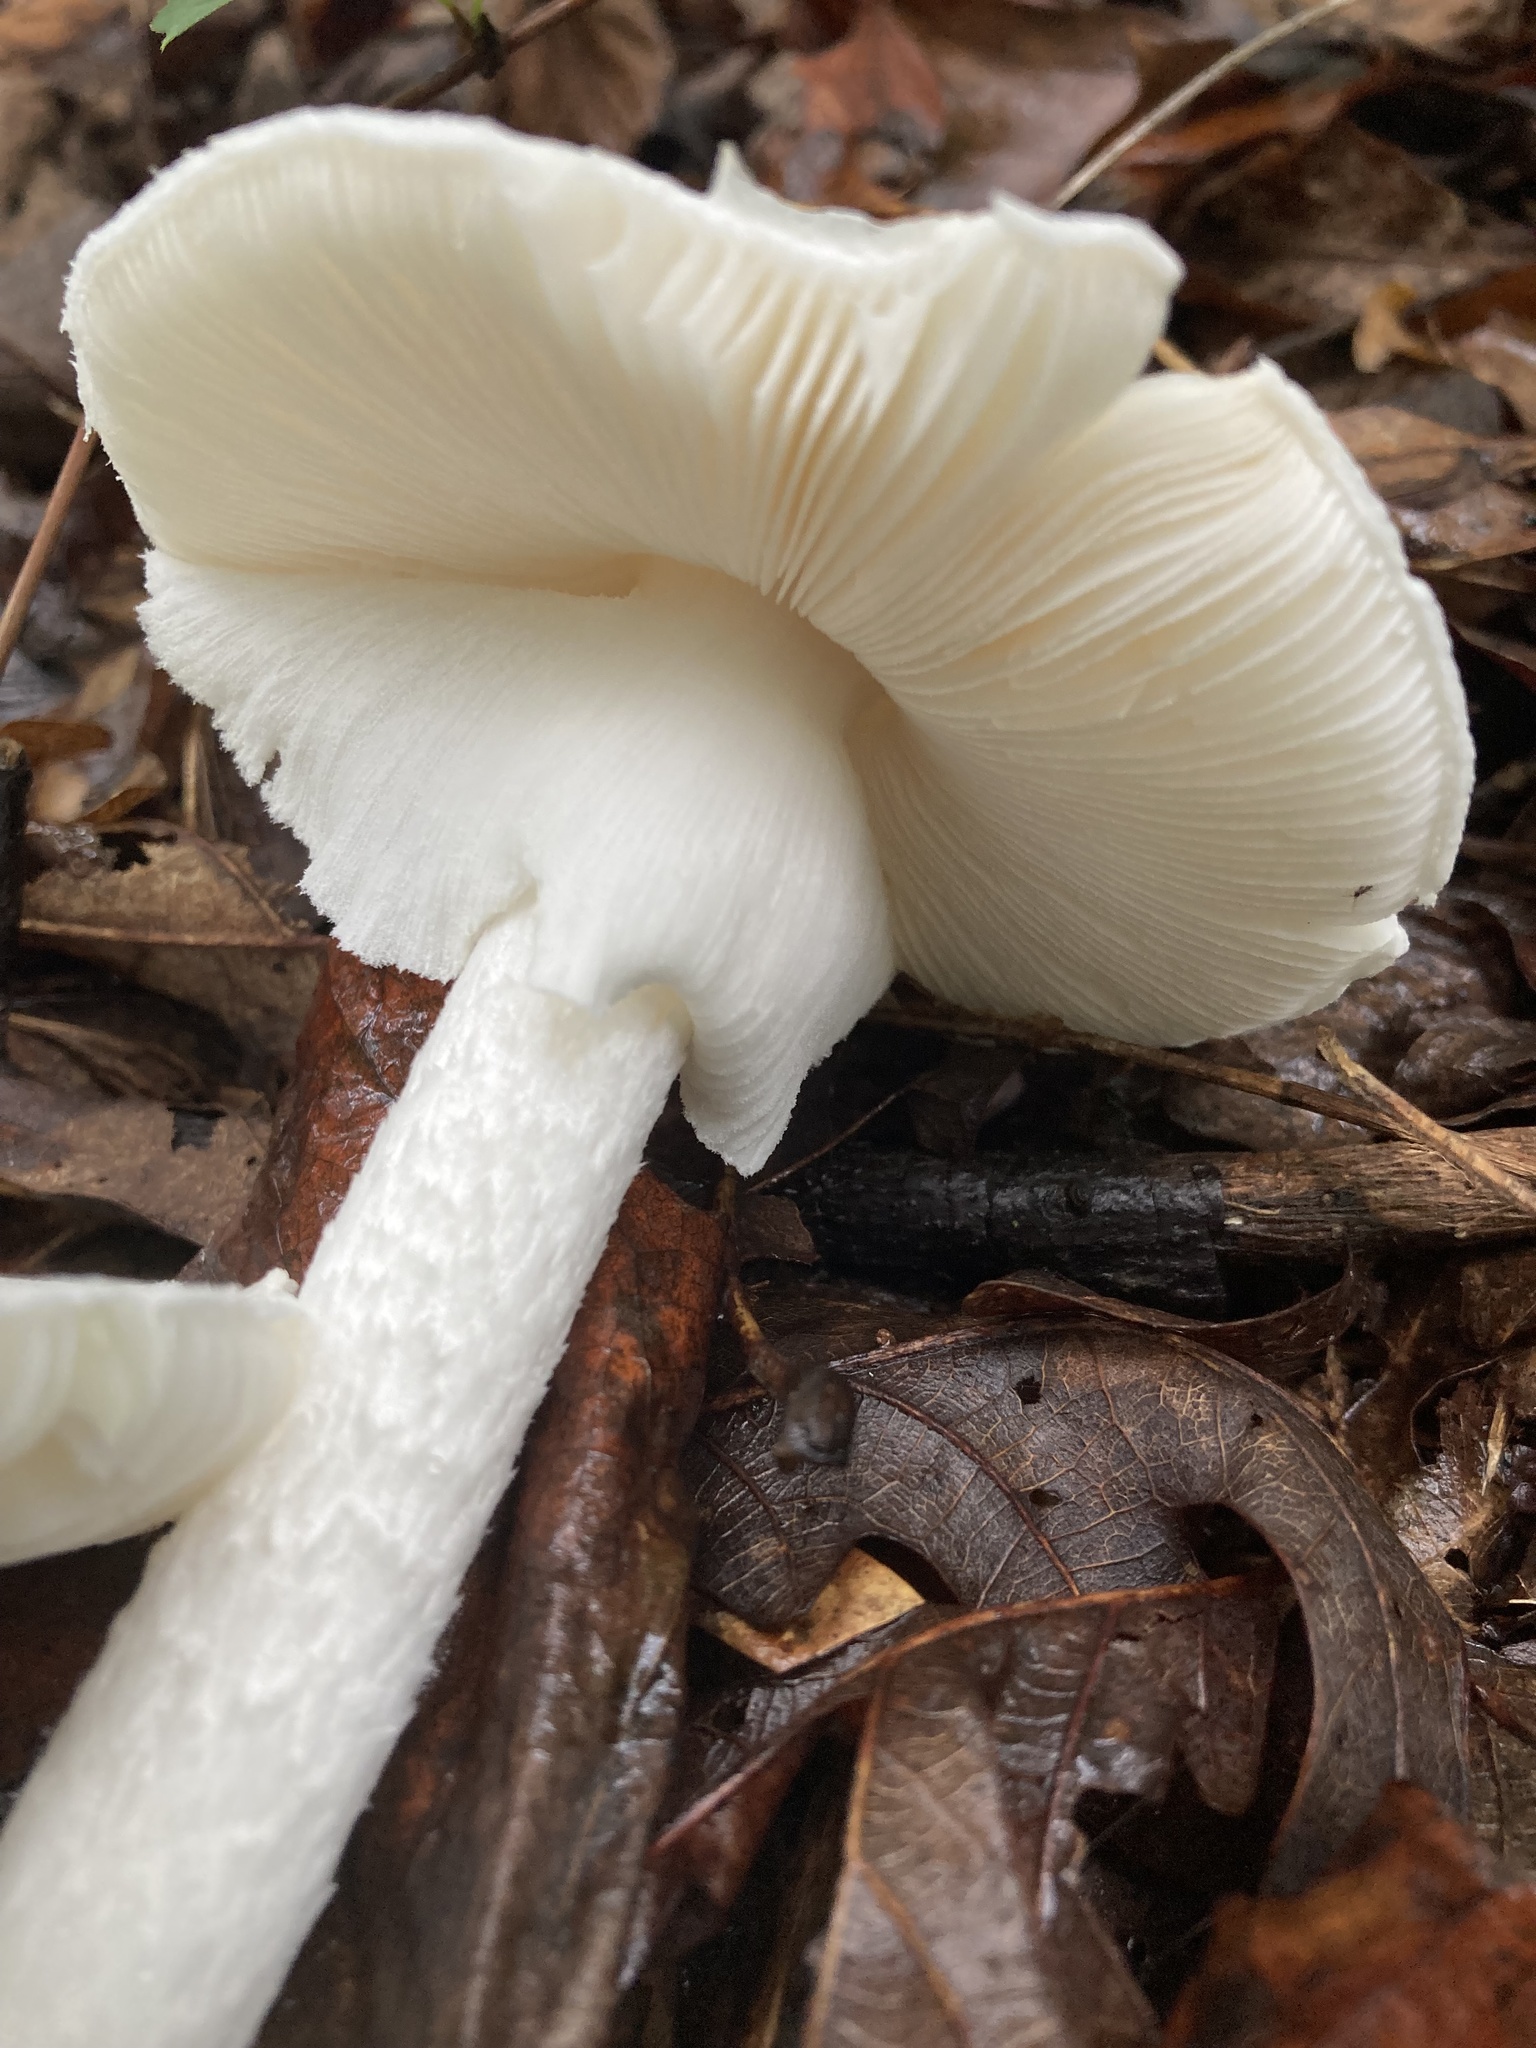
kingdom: Fungi
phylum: Basidiomycota
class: Agaricomycetes
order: Agaricales
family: Amanitaceae
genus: Amanita
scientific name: Amanita bisporigera
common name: Eastern north american destroying angel
